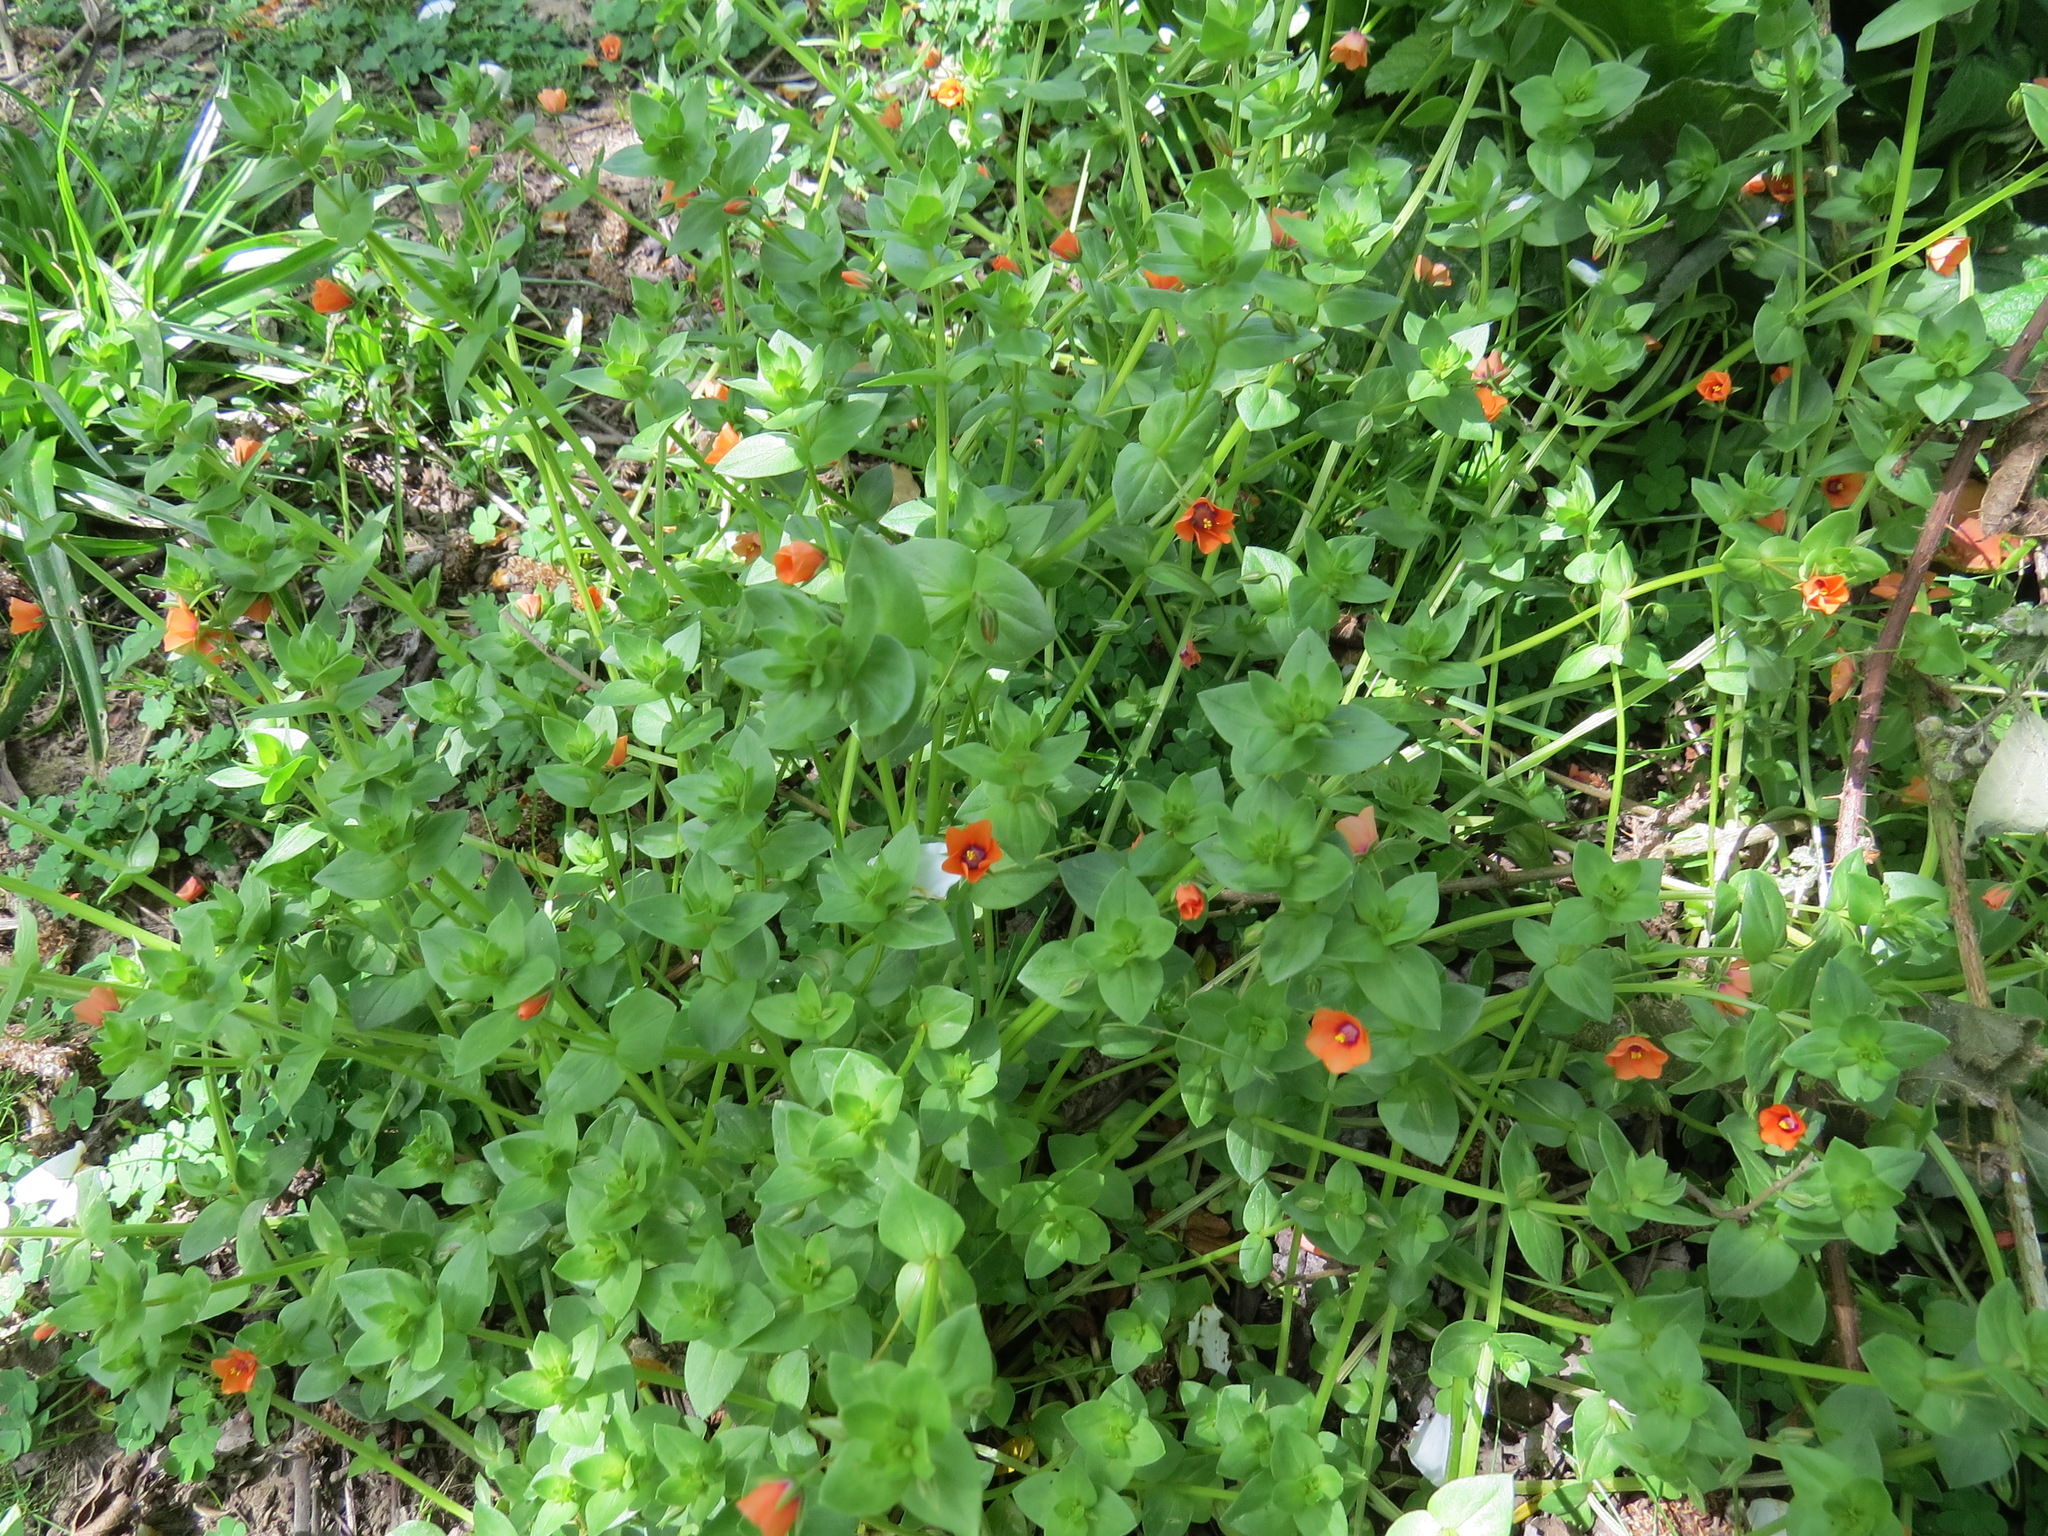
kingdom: Plantae
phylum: Tracheophyta
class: Magnoliopsida
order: Ericales
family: Primulaceae
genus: Lysimachia
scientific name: Lysimachia arvensis
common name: Scarlet pimpernel
